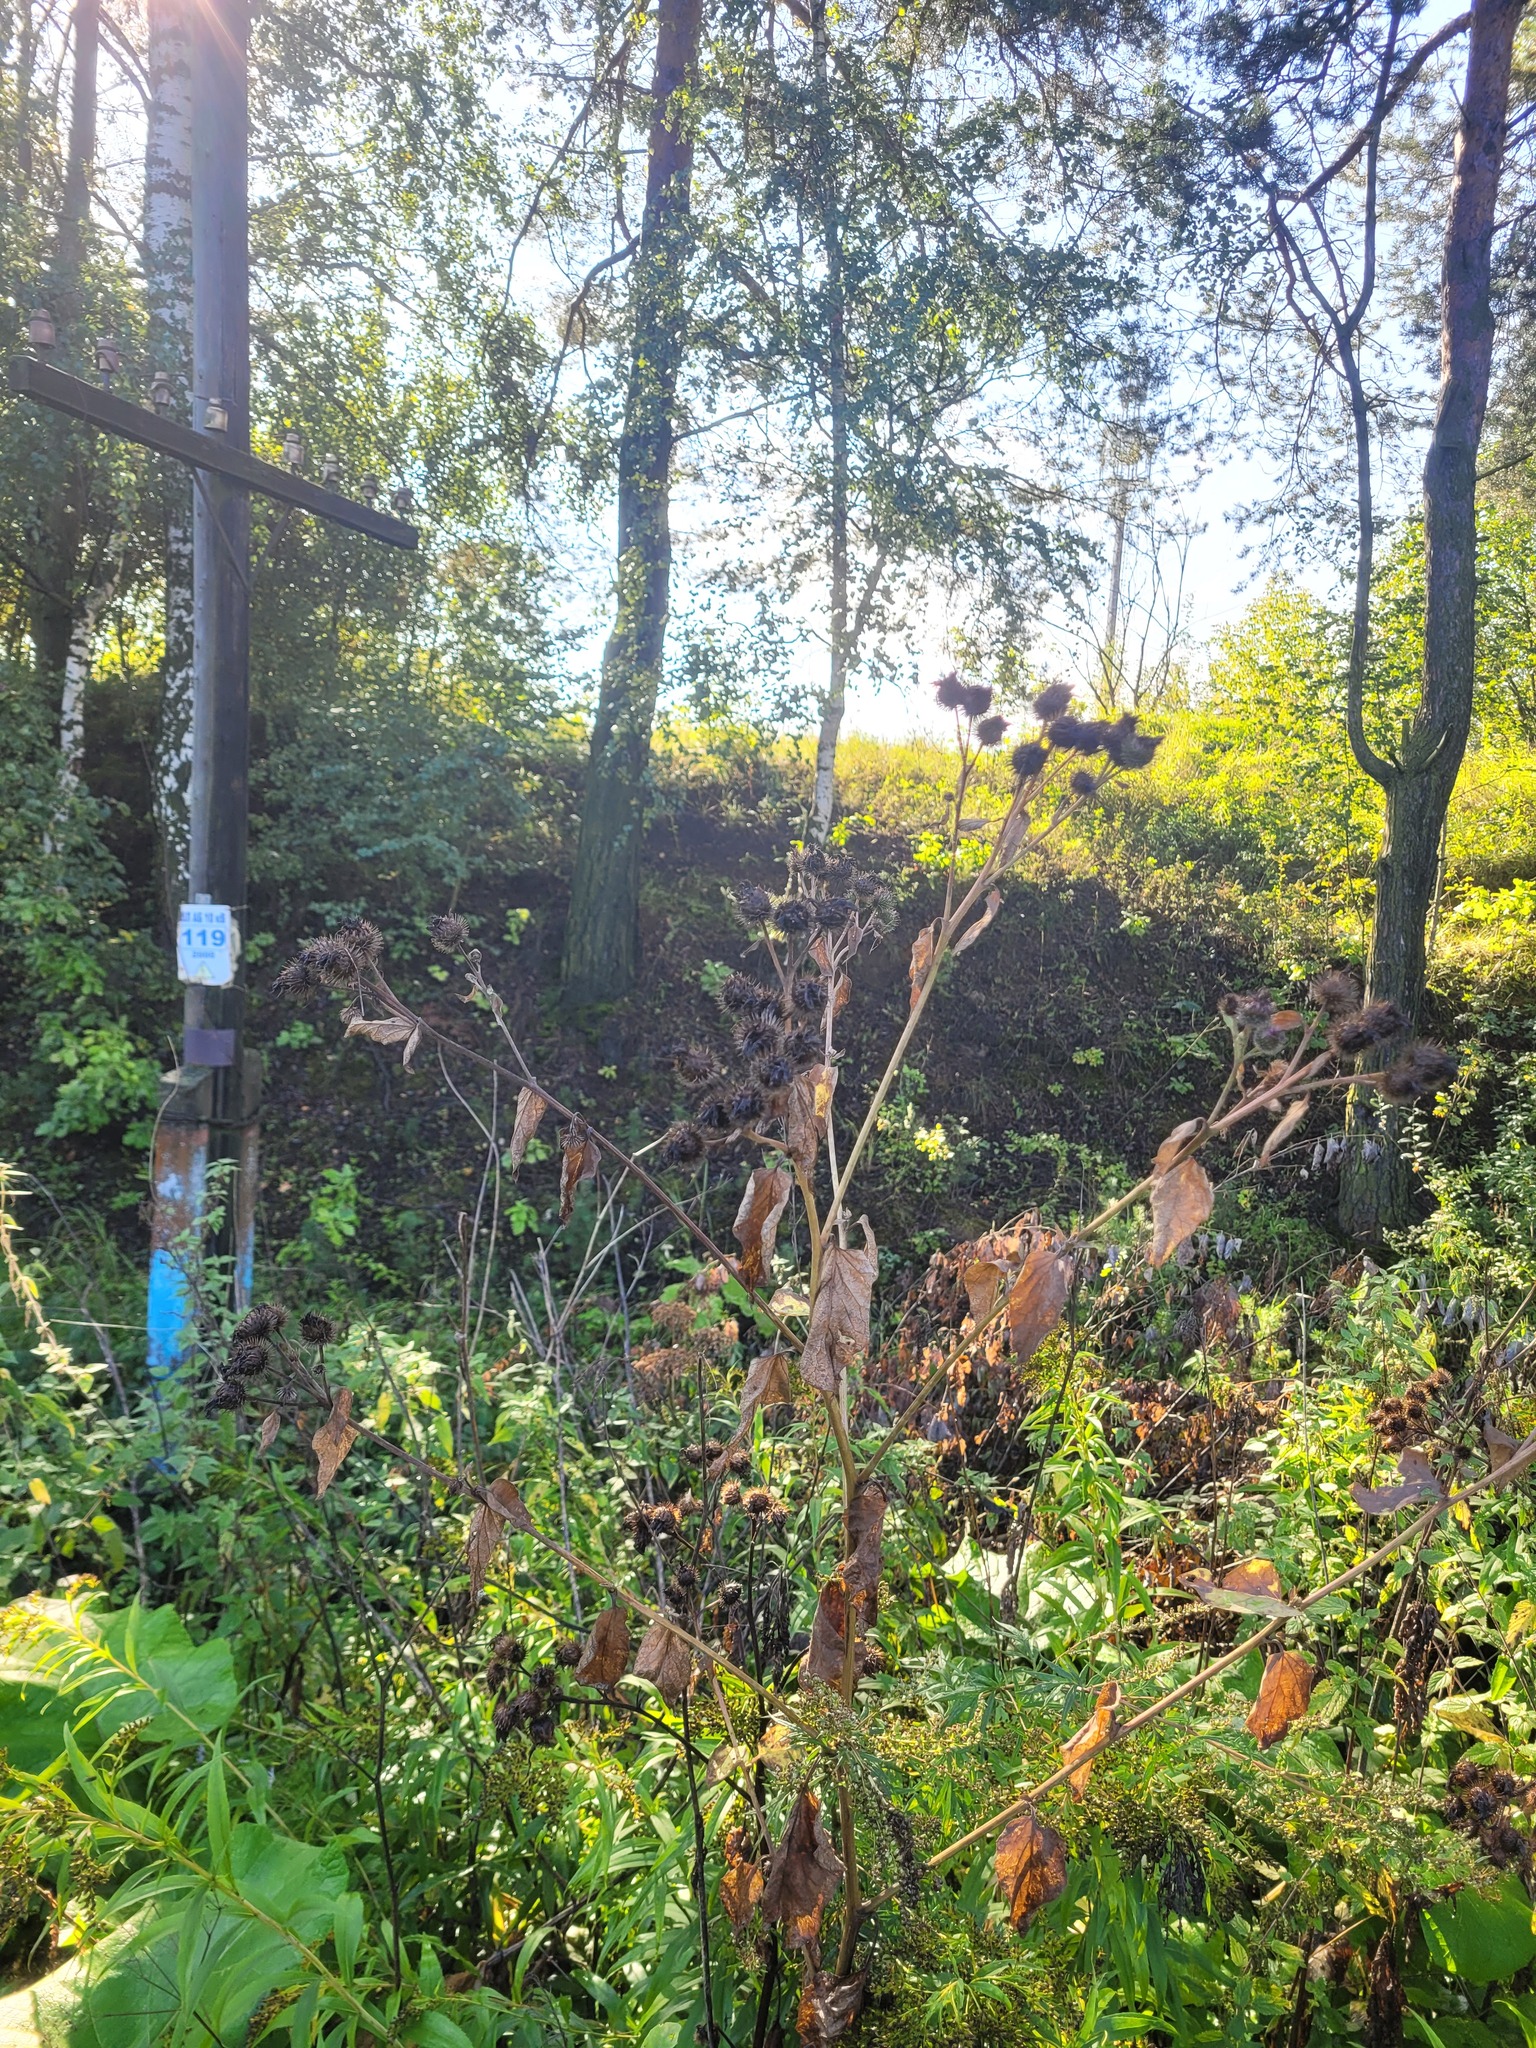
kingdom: Plantae
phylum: Tracheophyta
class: Magnoliopsida
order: Asterales
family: Asteraceae
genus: Arctium
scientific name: Arctium tomentosum
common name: Woolly burdock
